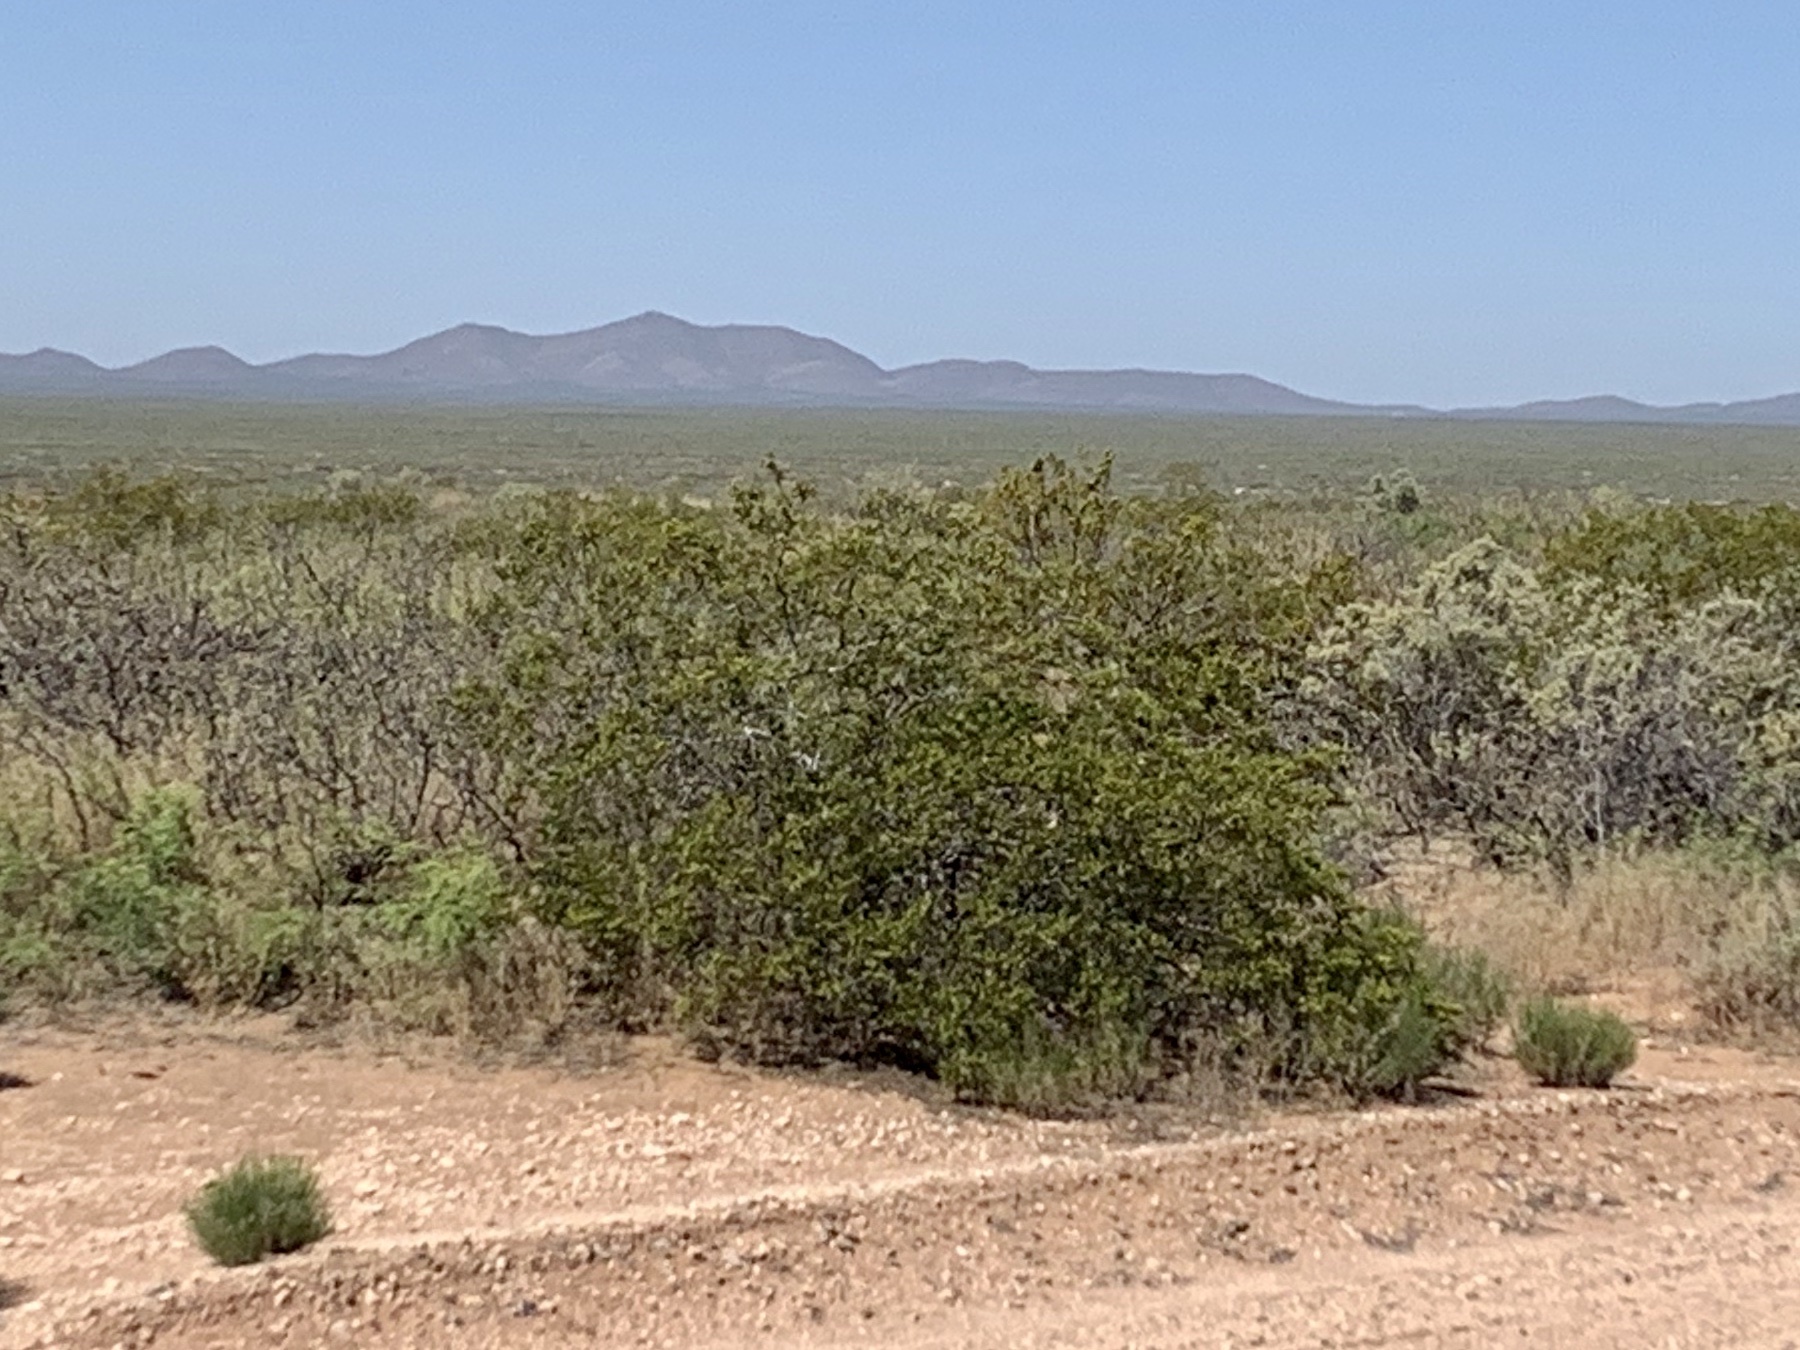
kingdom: Plantae
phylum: Tracheophyta
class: Magnoliopsida
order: Zygophyllales
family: Zygophyllaceae
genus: Larrea
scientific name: Larrea tridentata
